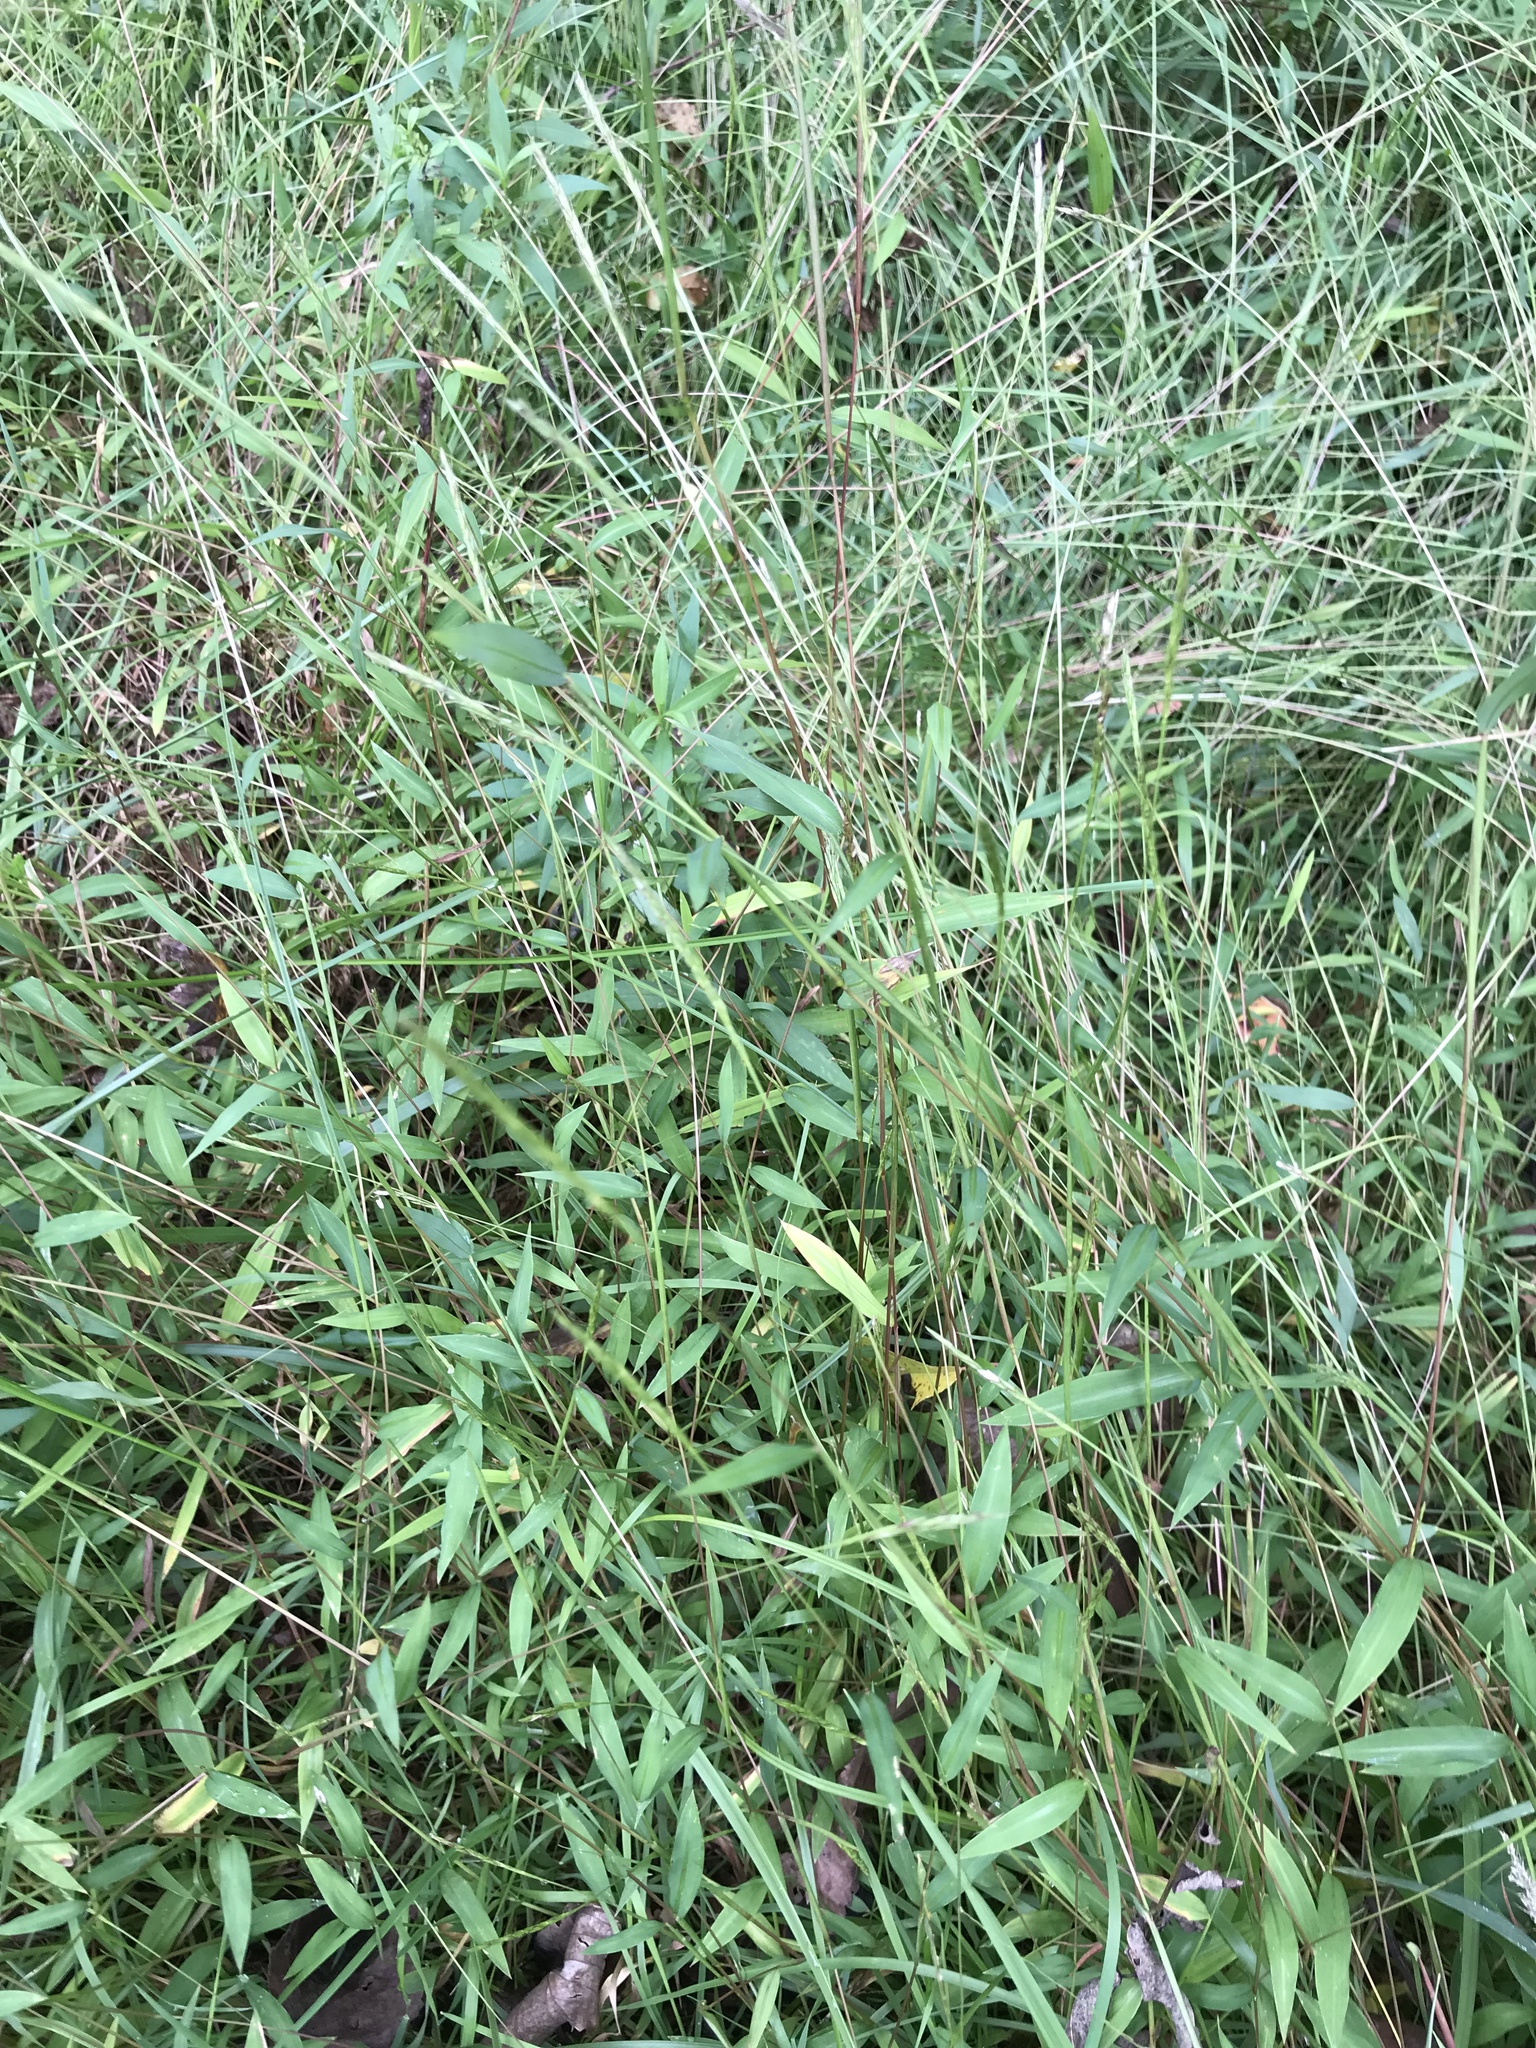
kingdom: Plantae
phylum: Tracheophyta
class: Liliopsida
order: Poales
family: Poaceae
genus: Microstegium
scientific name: Microstegium vimineum
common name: Japanese stiltgrass
